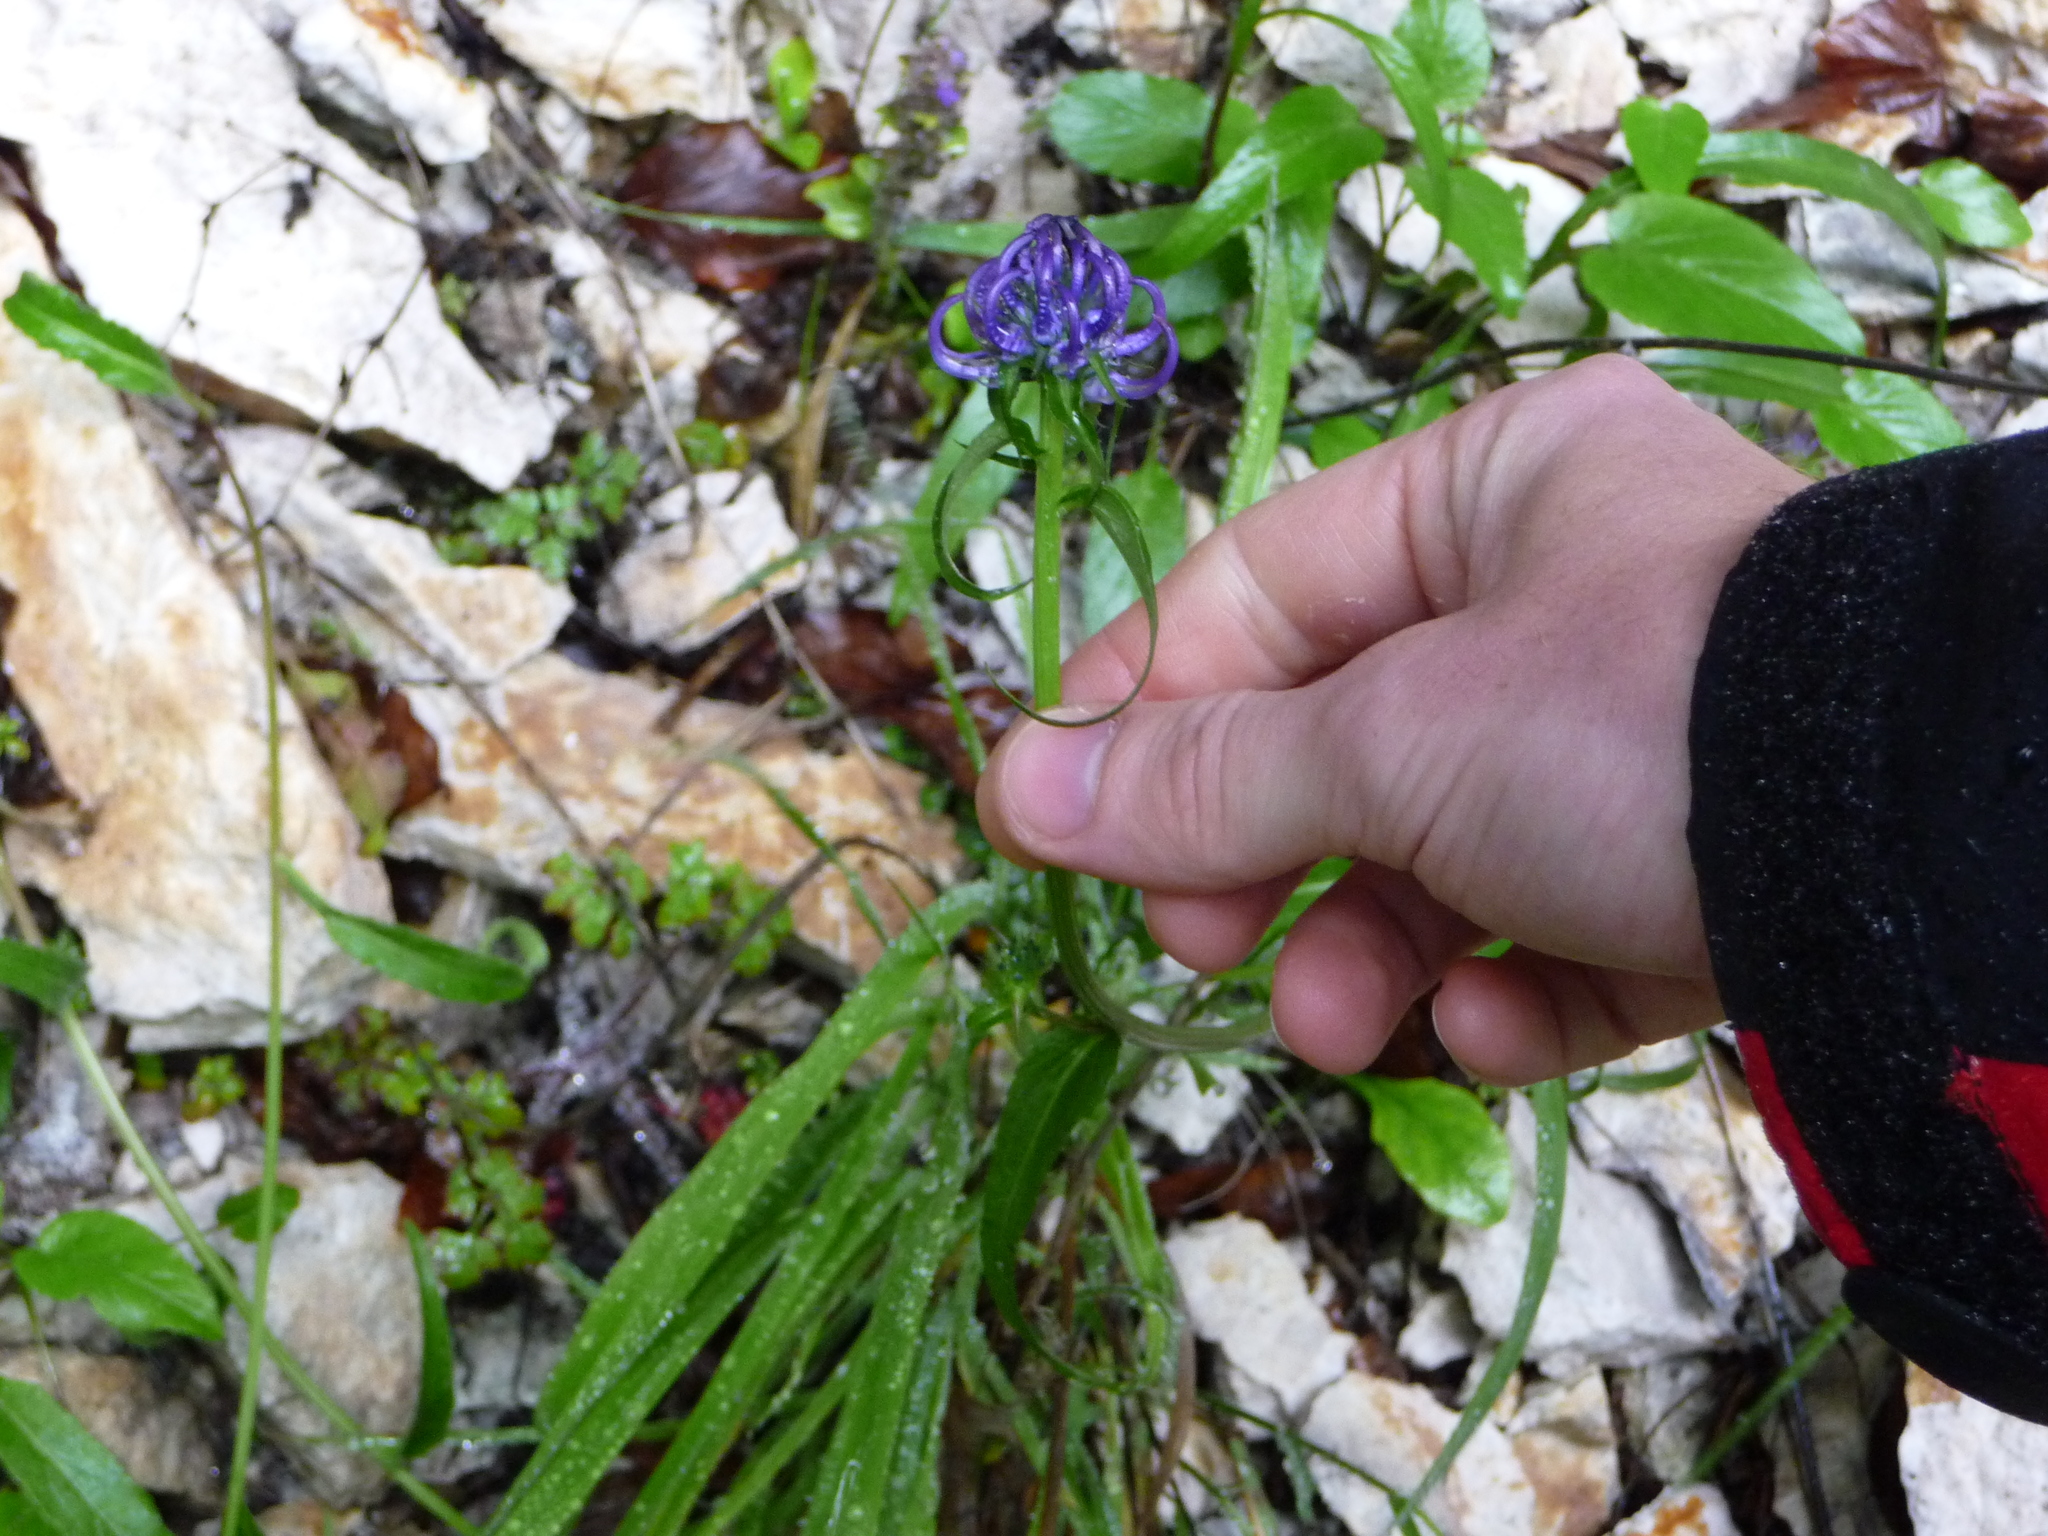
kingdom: Plantae
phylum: Tracheophyta
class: Magnoliopsida
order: Asterales
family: Campanulaceae
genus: Phyteuma
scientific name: Phyteuma orbiculare
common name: Round-headed rampion
